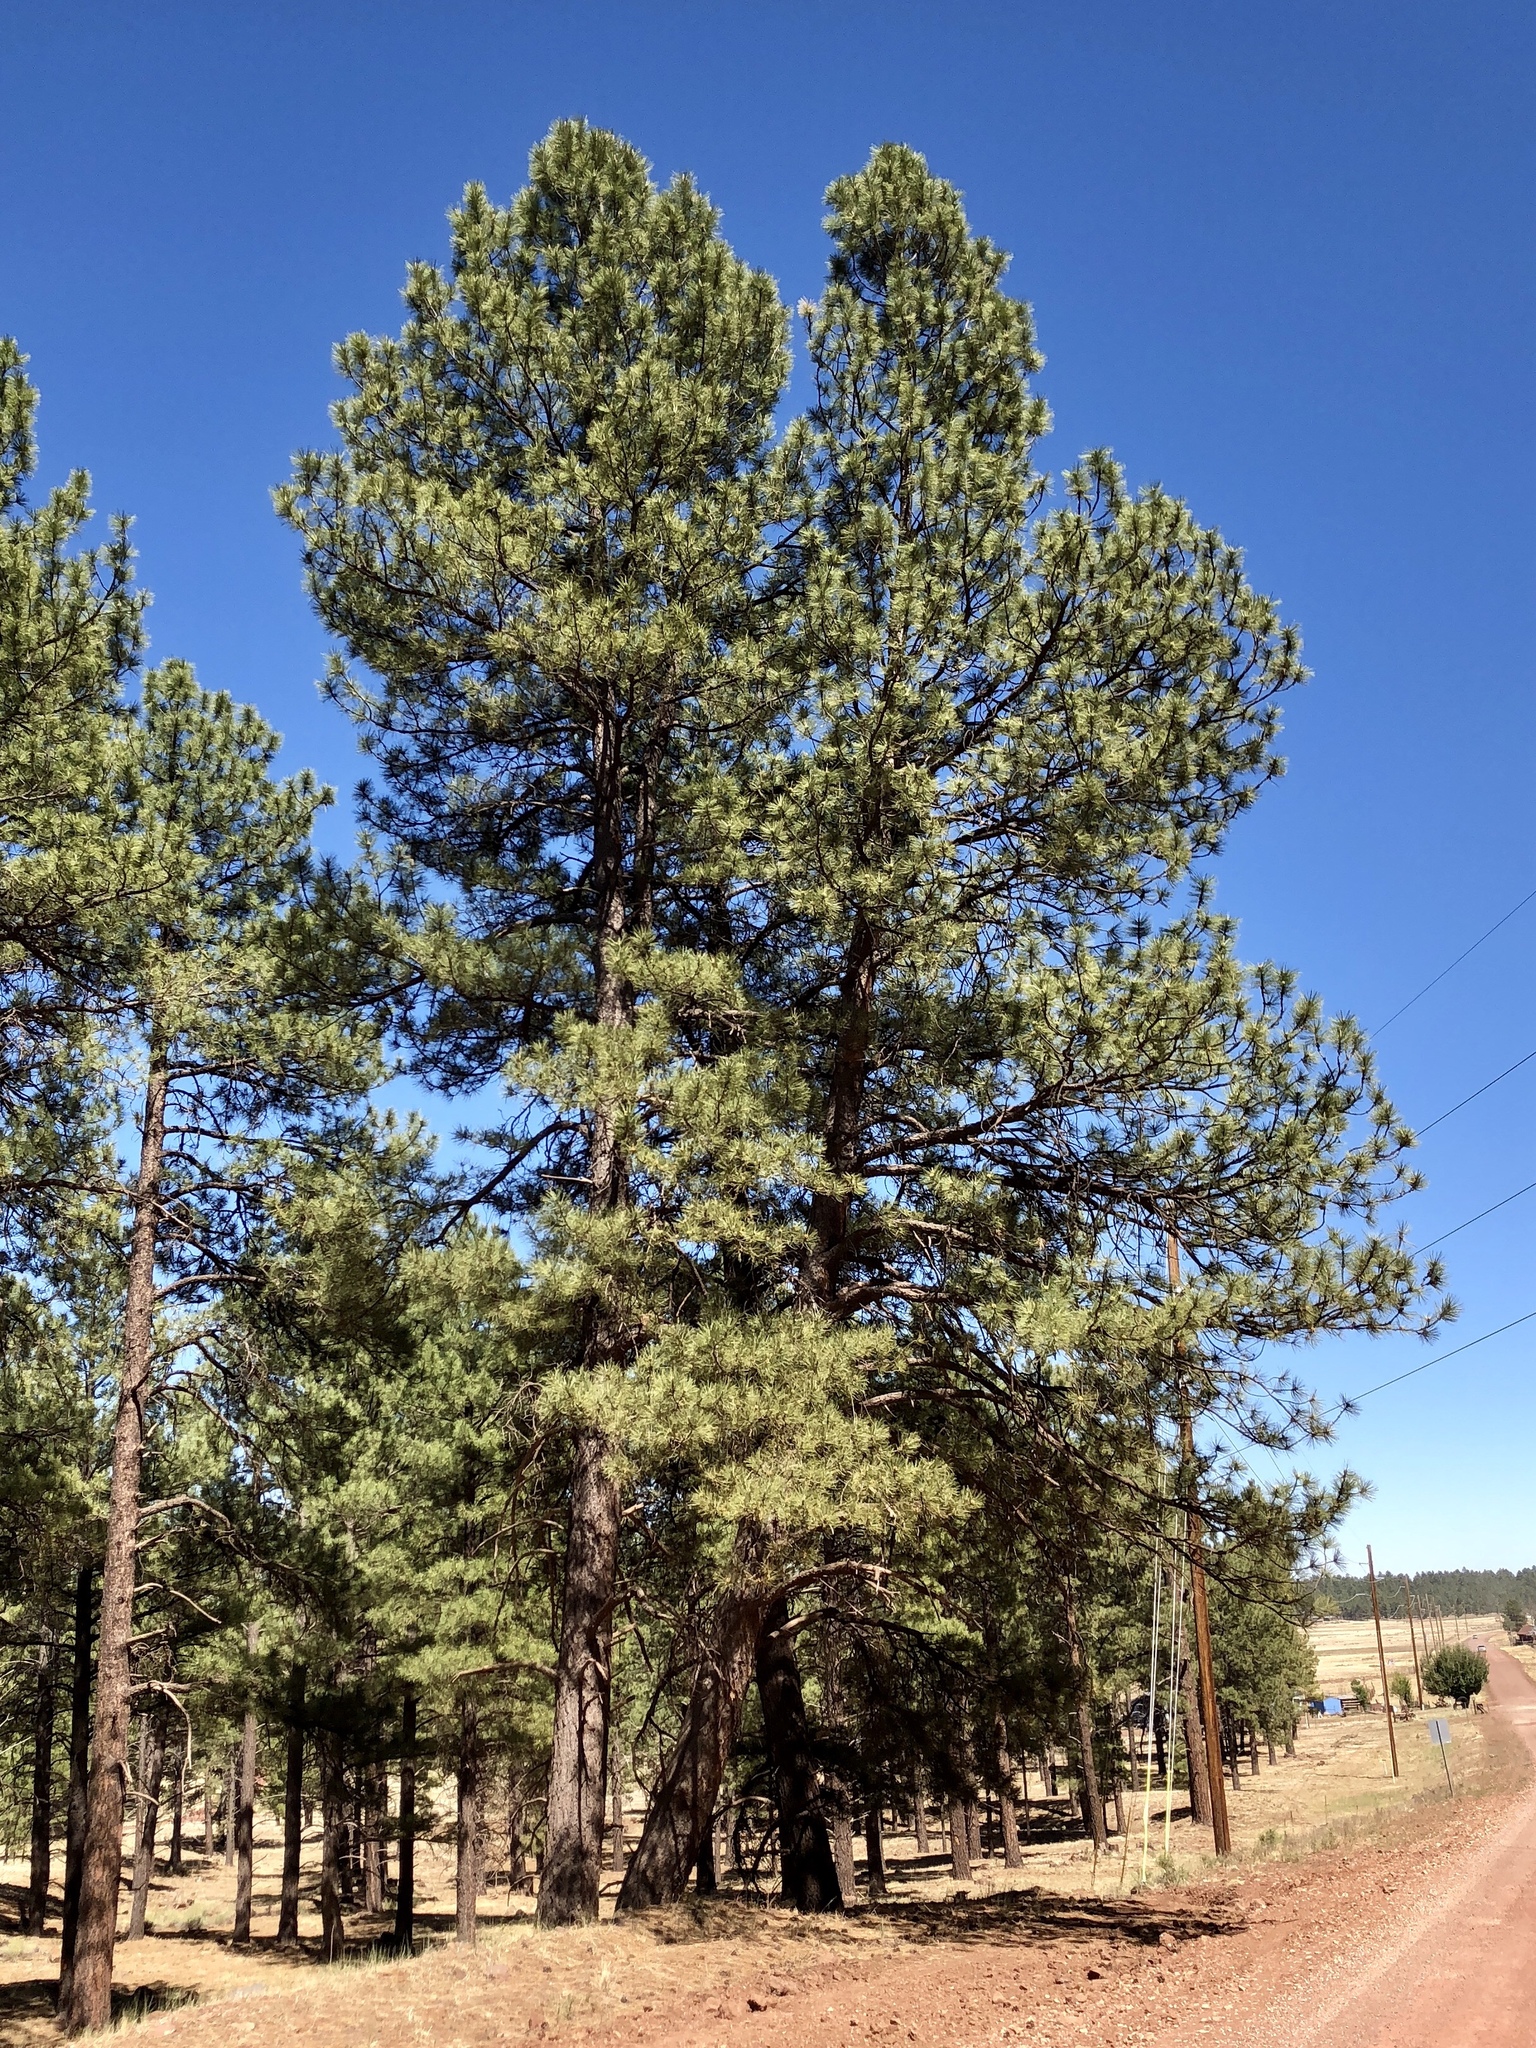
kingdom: Plantae
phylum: Tracheophyta
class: Pinopsida
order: Pinales
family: Pinaceae
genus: Pinus
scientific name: Pinus ponderosa
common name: Western yellow-pine
